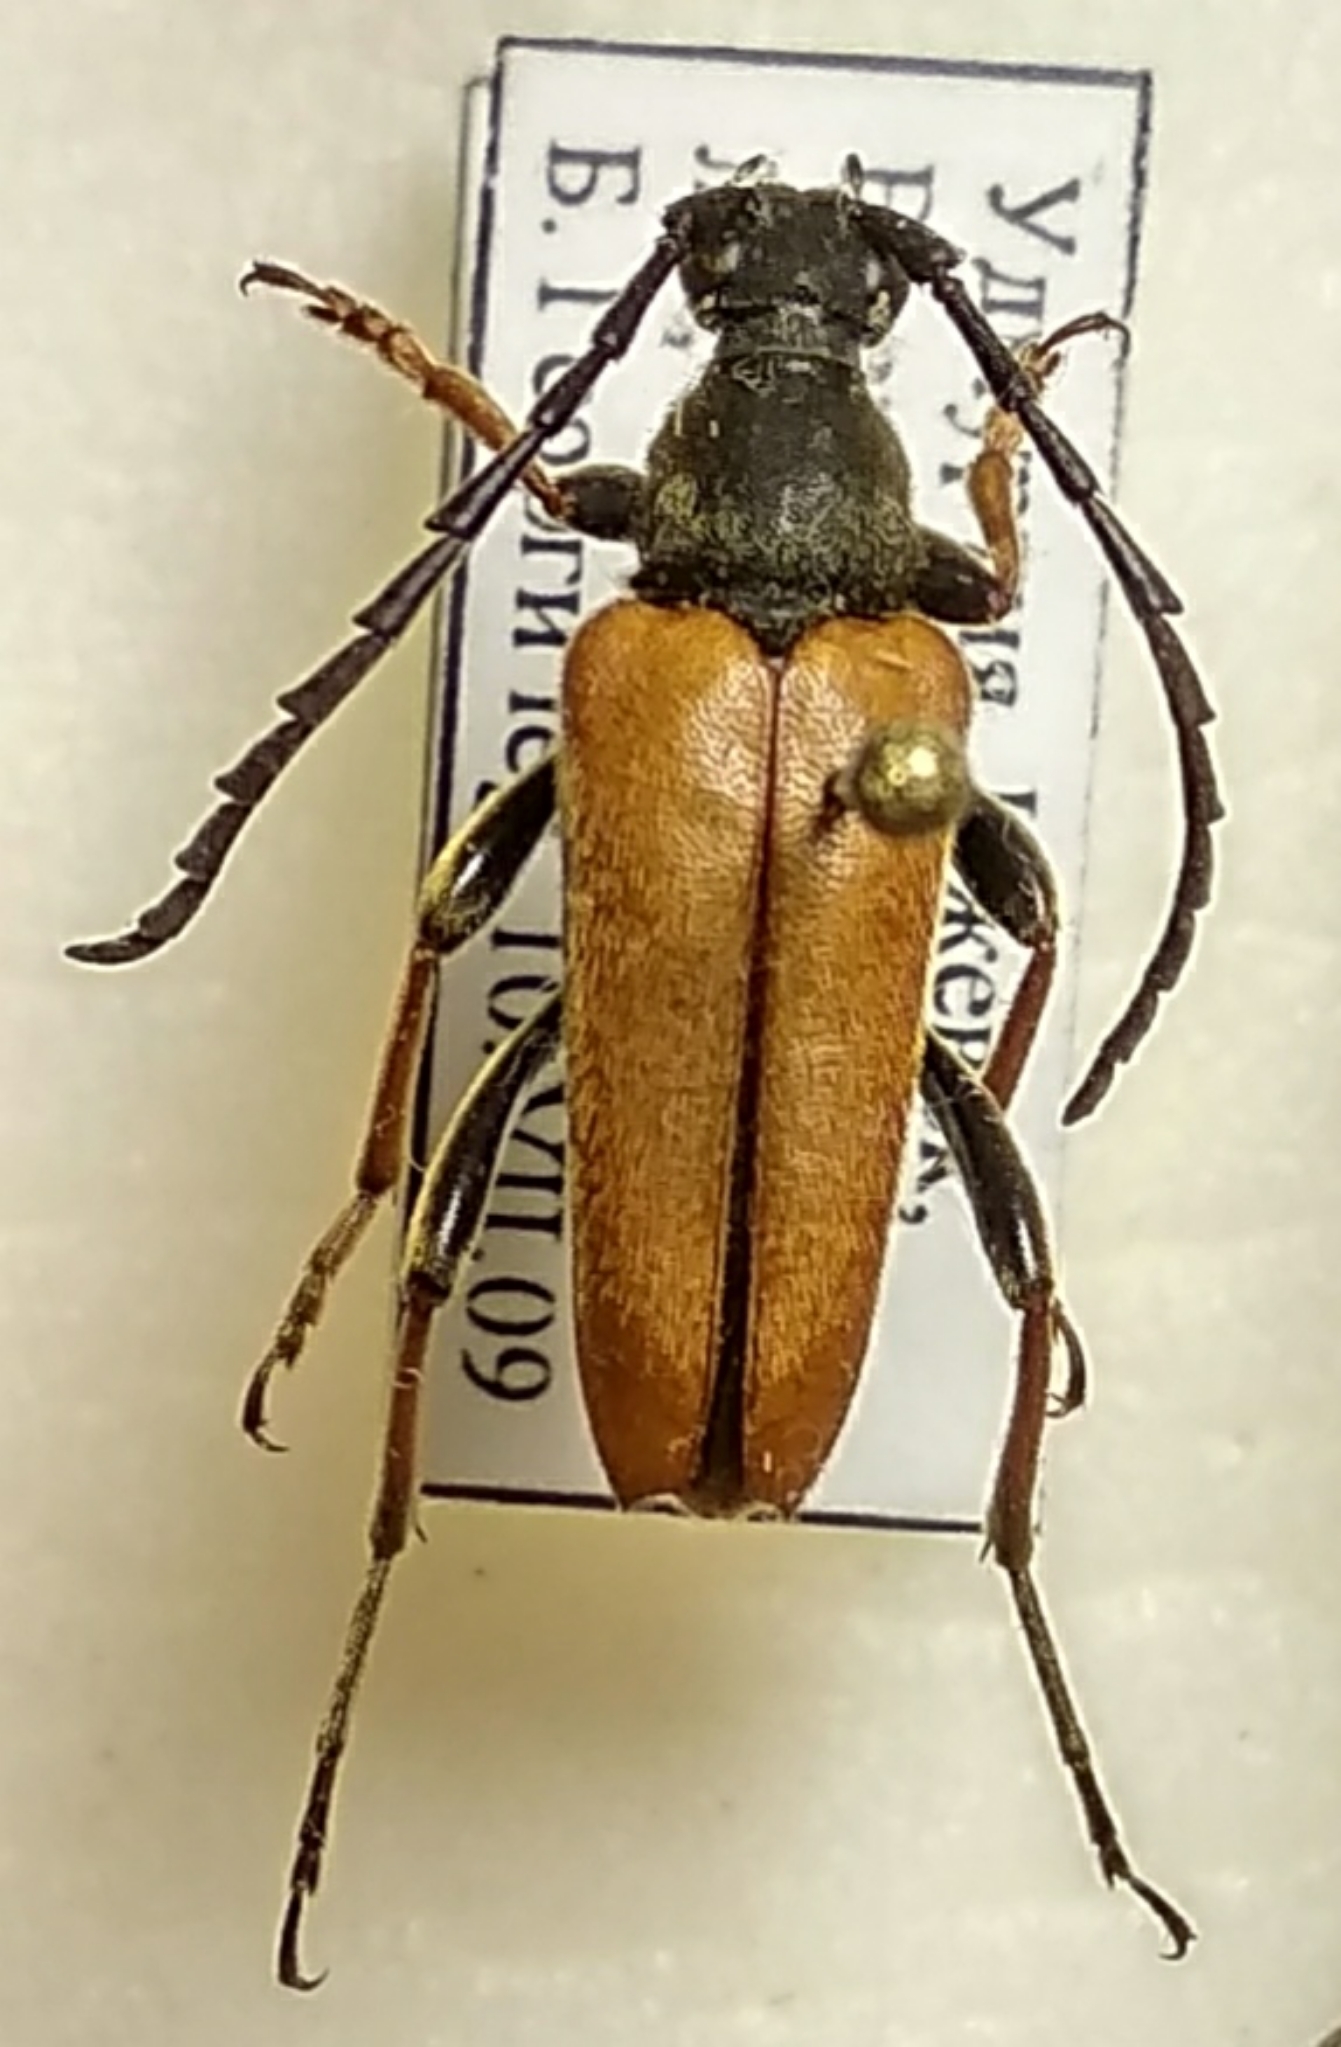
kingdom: Animalia
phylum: Arthropoda
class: Insecta
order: Coleoptera
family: Cerambycidae
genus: Stictoleptura
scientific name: Stictoleptura rubra
